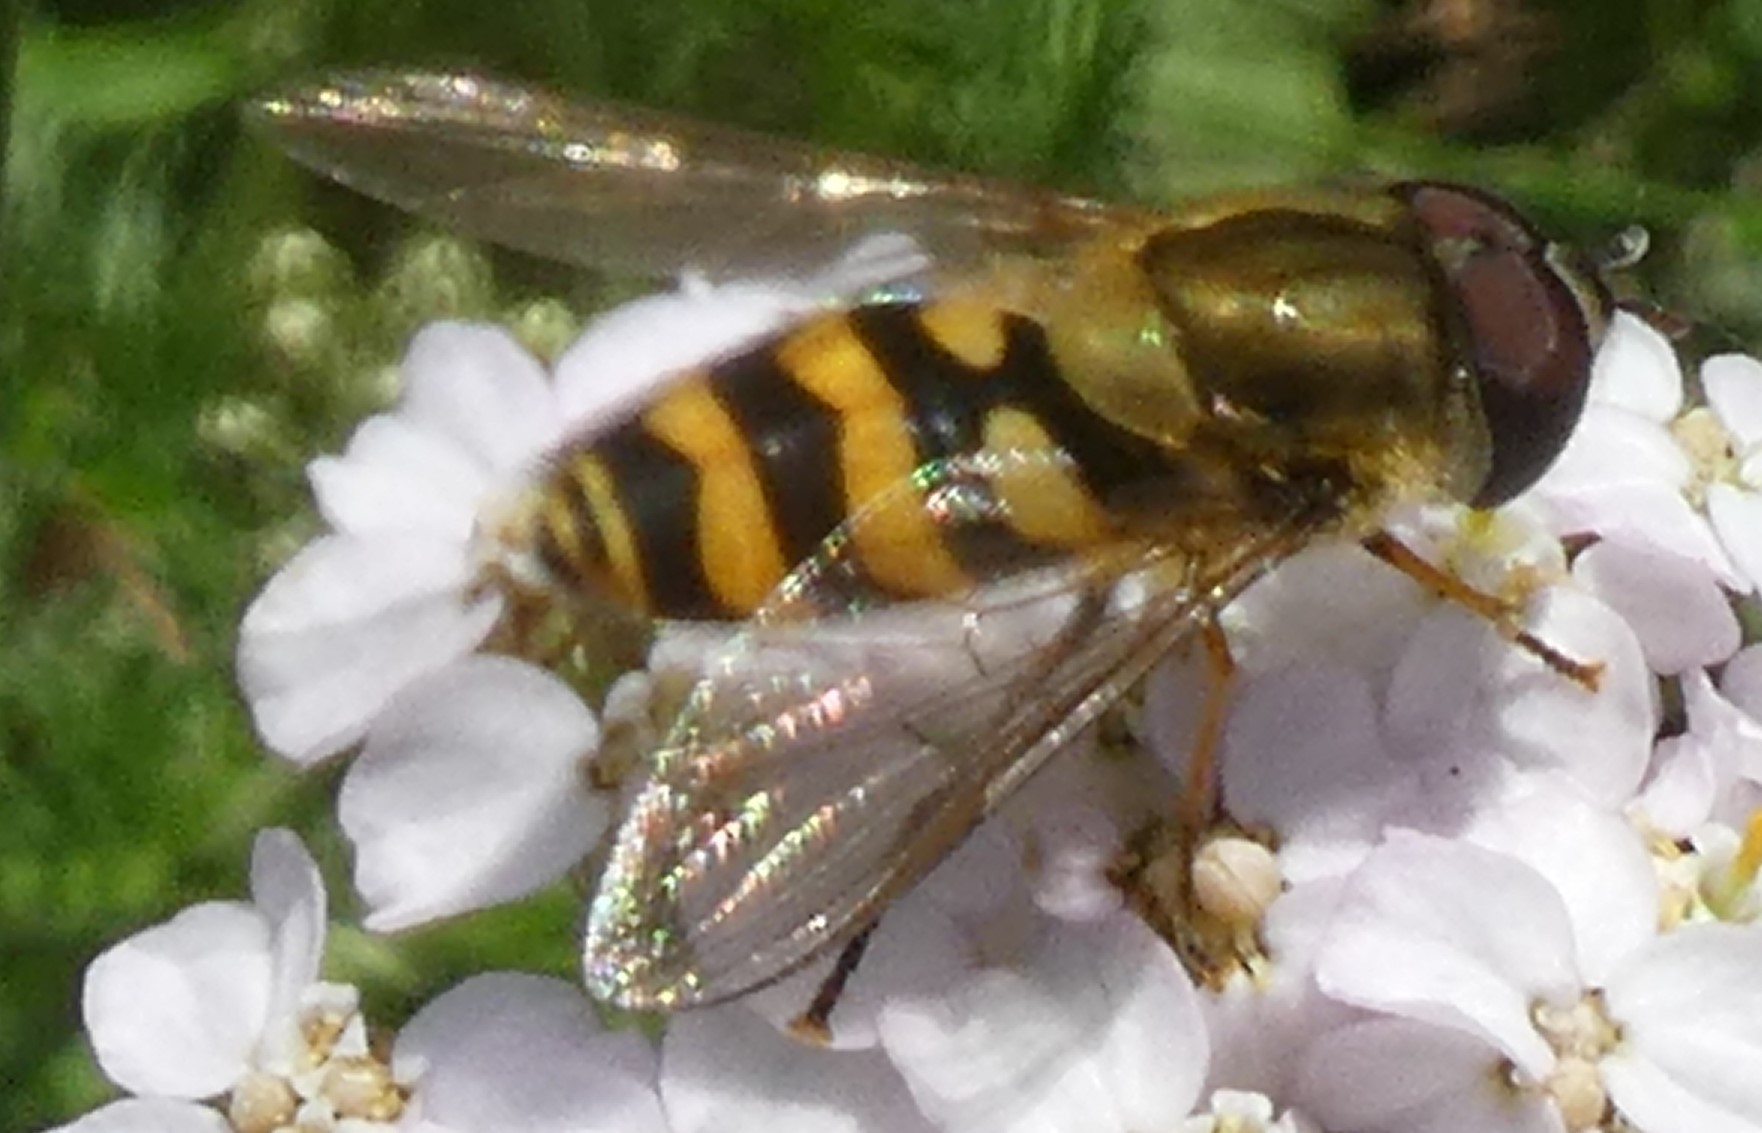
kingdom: Animalia
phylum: Arthropoda
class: Insecta
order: Diptera
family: Syrphidae
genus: Syrphus
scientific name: Syrphus
